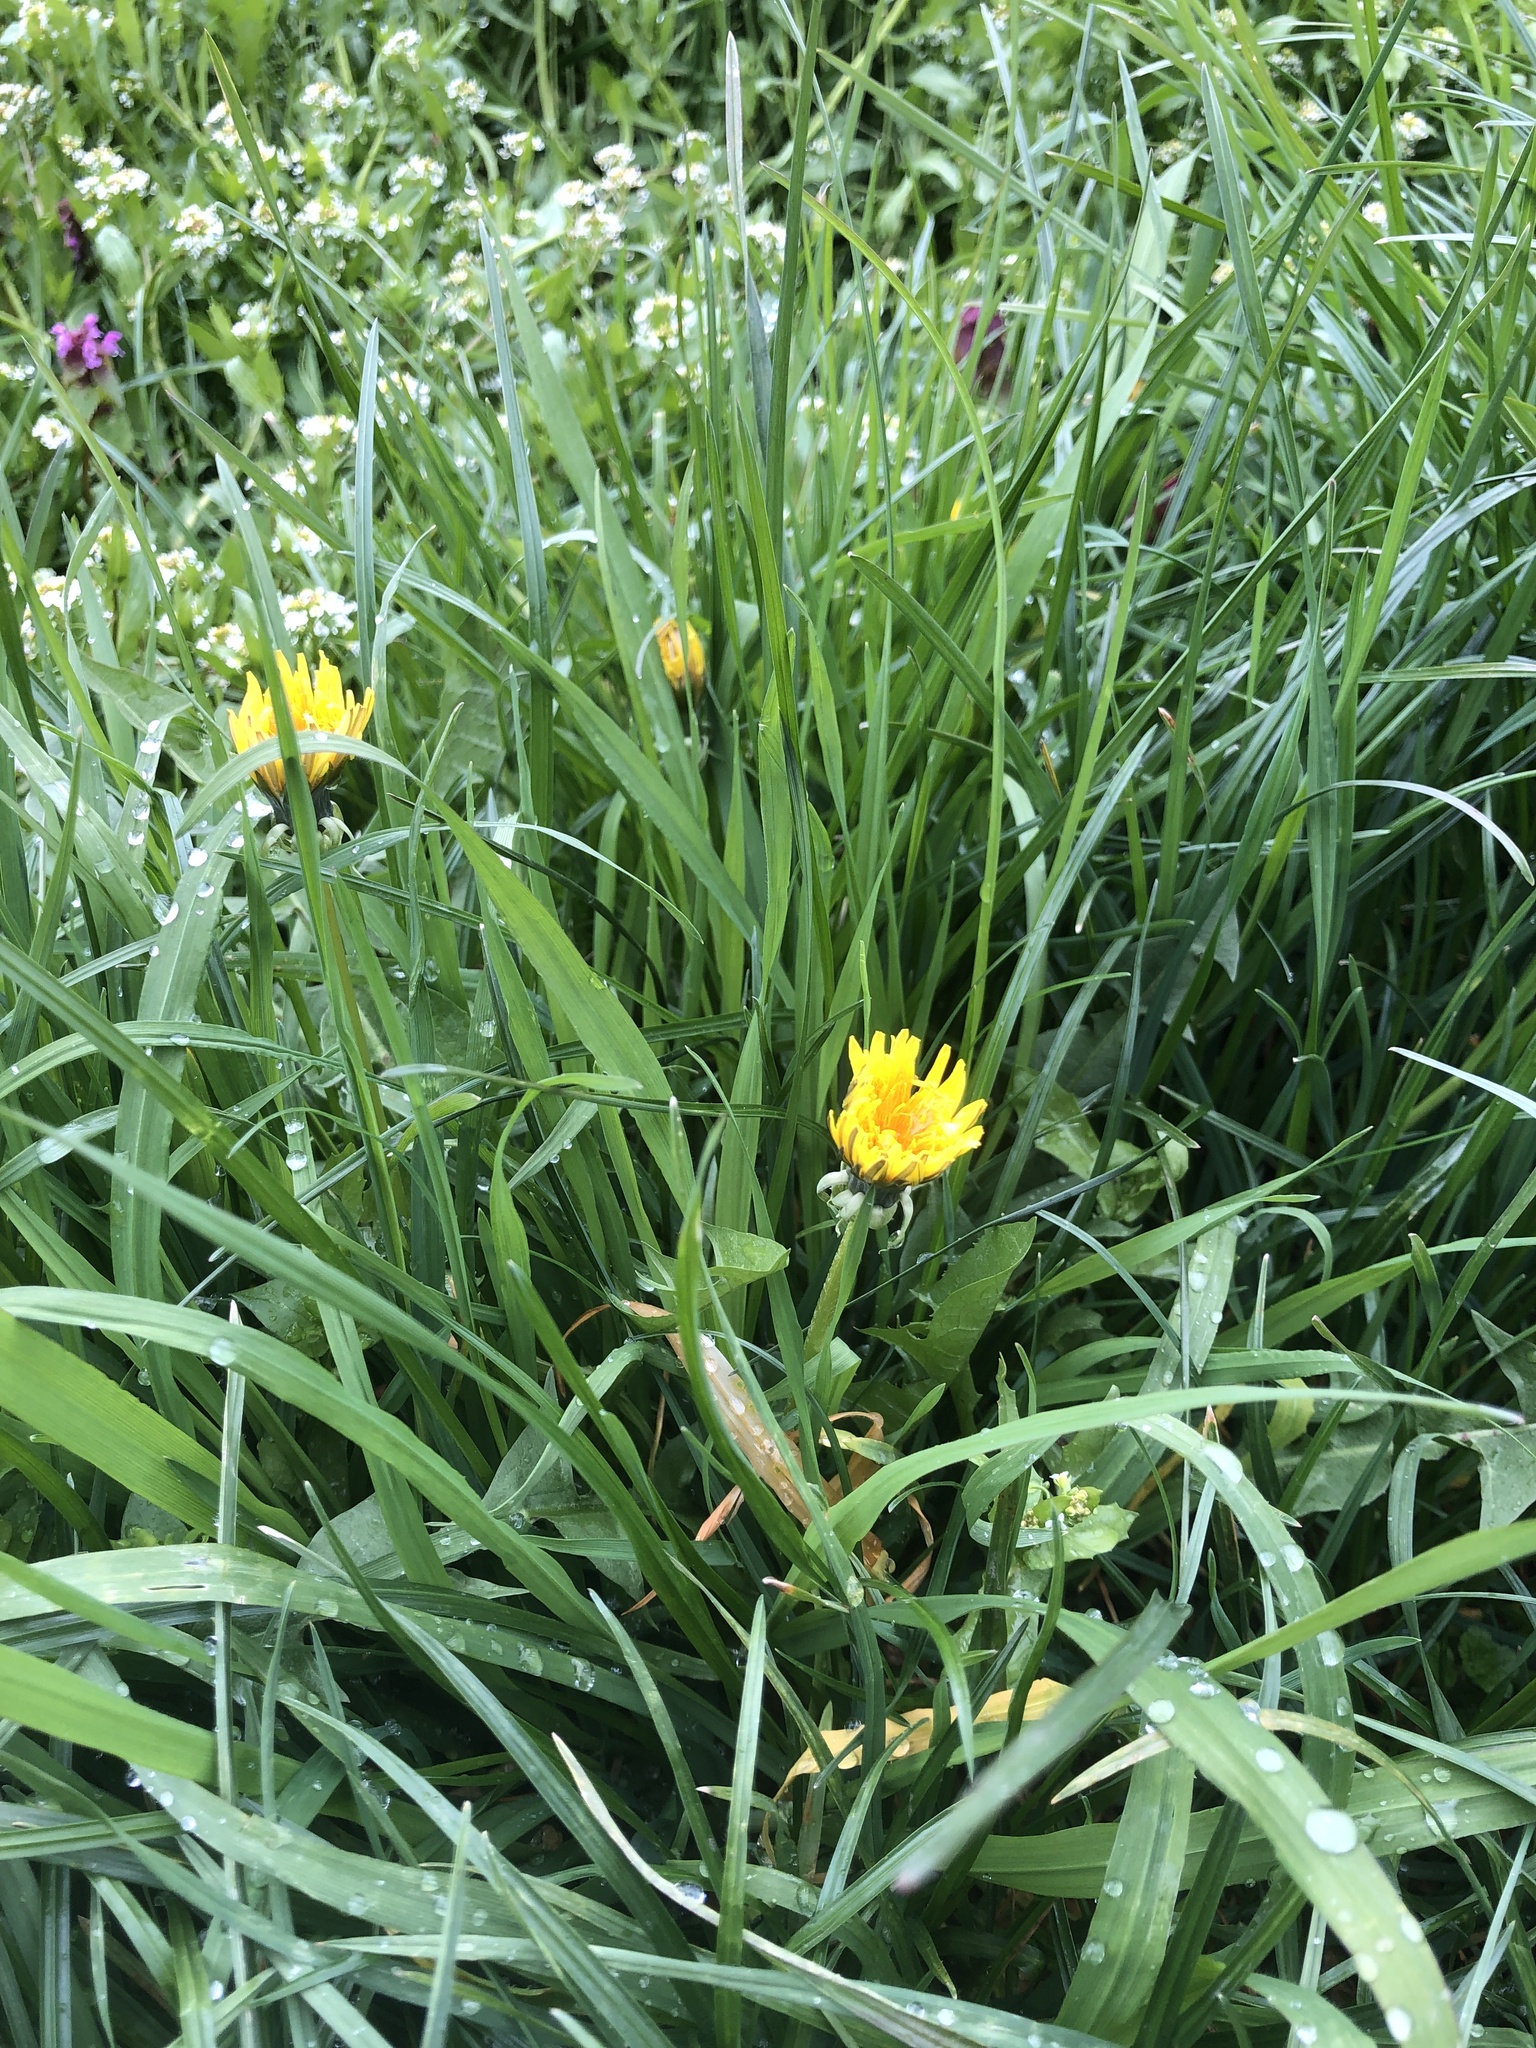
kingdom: Plantae
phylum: Tracheophyta
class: Magnoliopsida
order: Asterales
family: Asteraceae
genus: Taraxacum
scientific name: Taraxacum officinale
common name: Common dandelion
